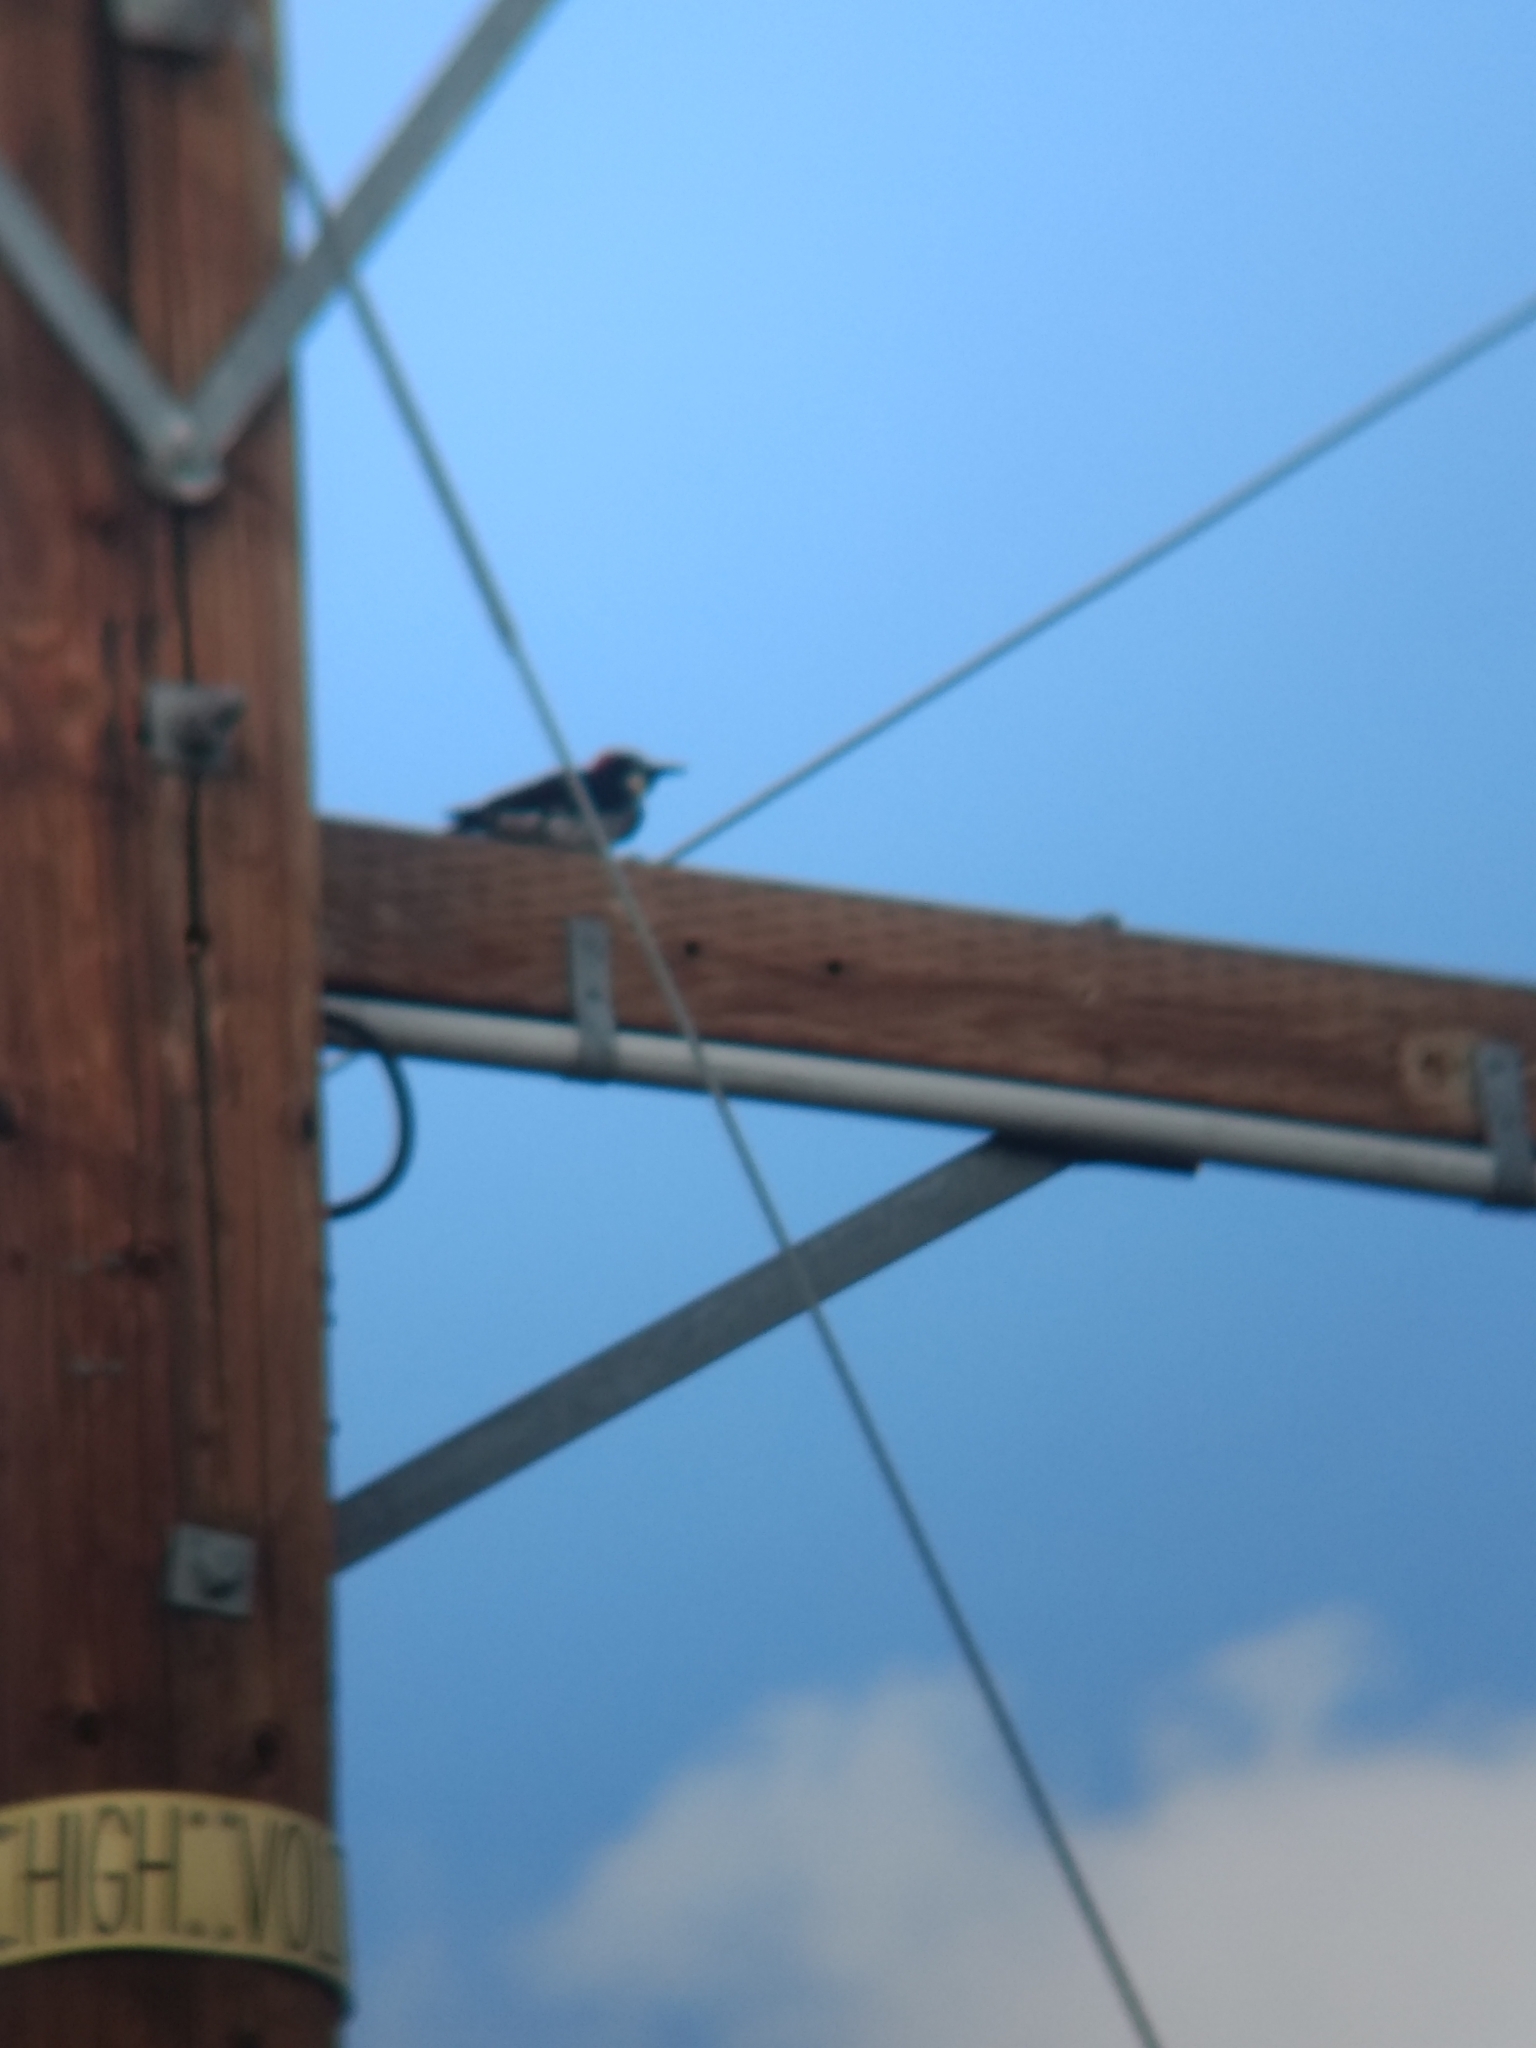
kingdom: Animalia
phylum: Chordata
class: Aves
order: Piciformes
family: Picidae
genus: Melanerpes
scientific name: Melanerpes formicivorus
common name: Acorn woodpecker
